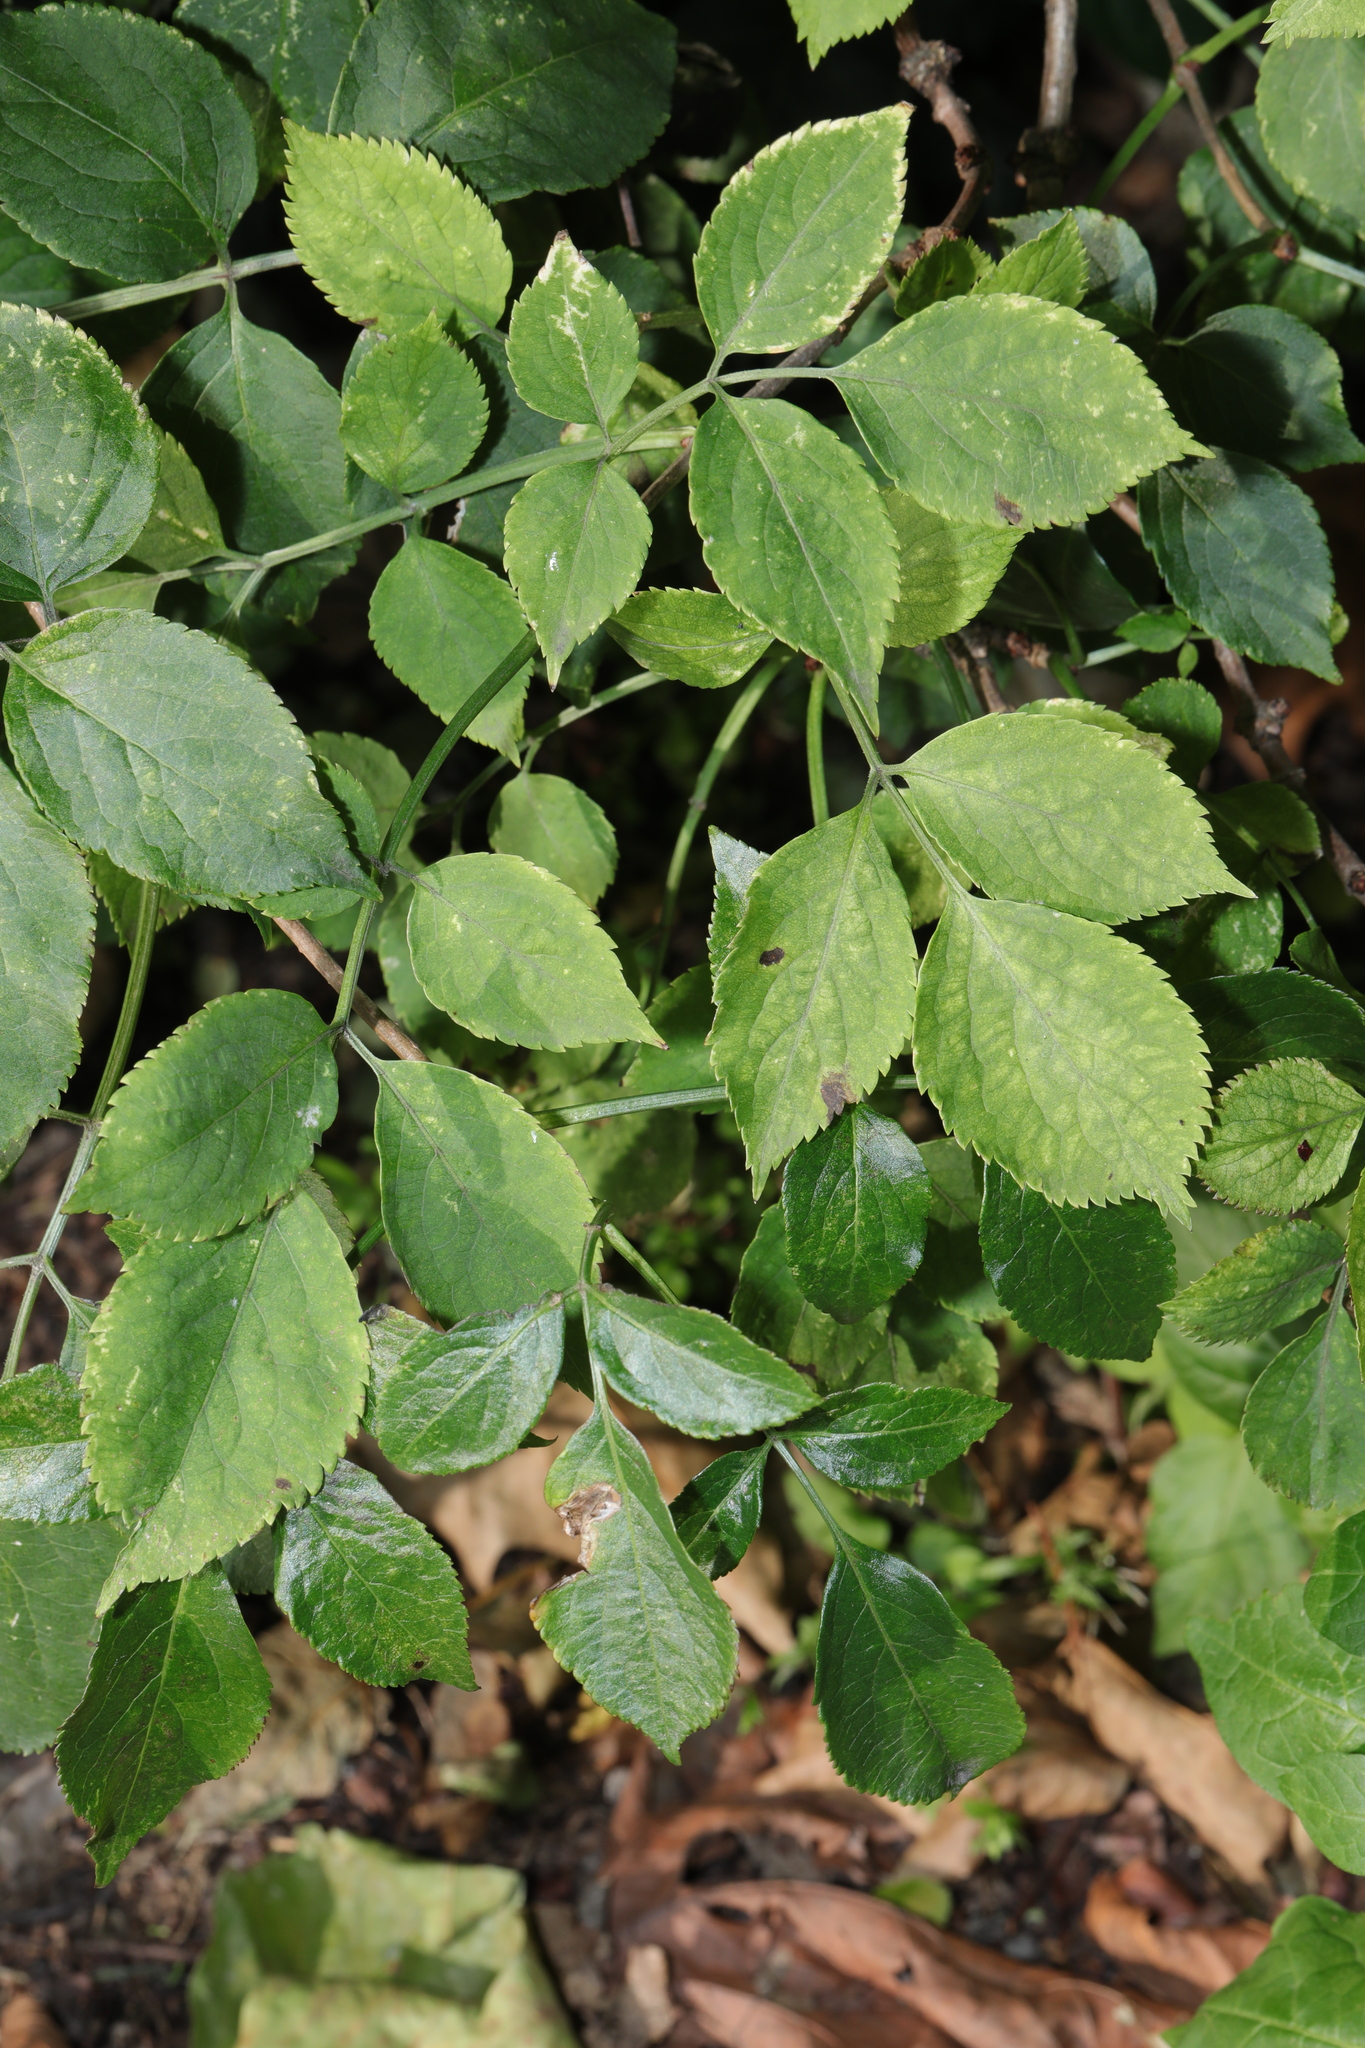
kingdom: Plantae
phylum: Tracheophyta
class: Magnoliopsida
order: Dipsacales
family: Viburnaceae
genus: Sambucus
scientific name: Sambucus nigra
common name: Elder
